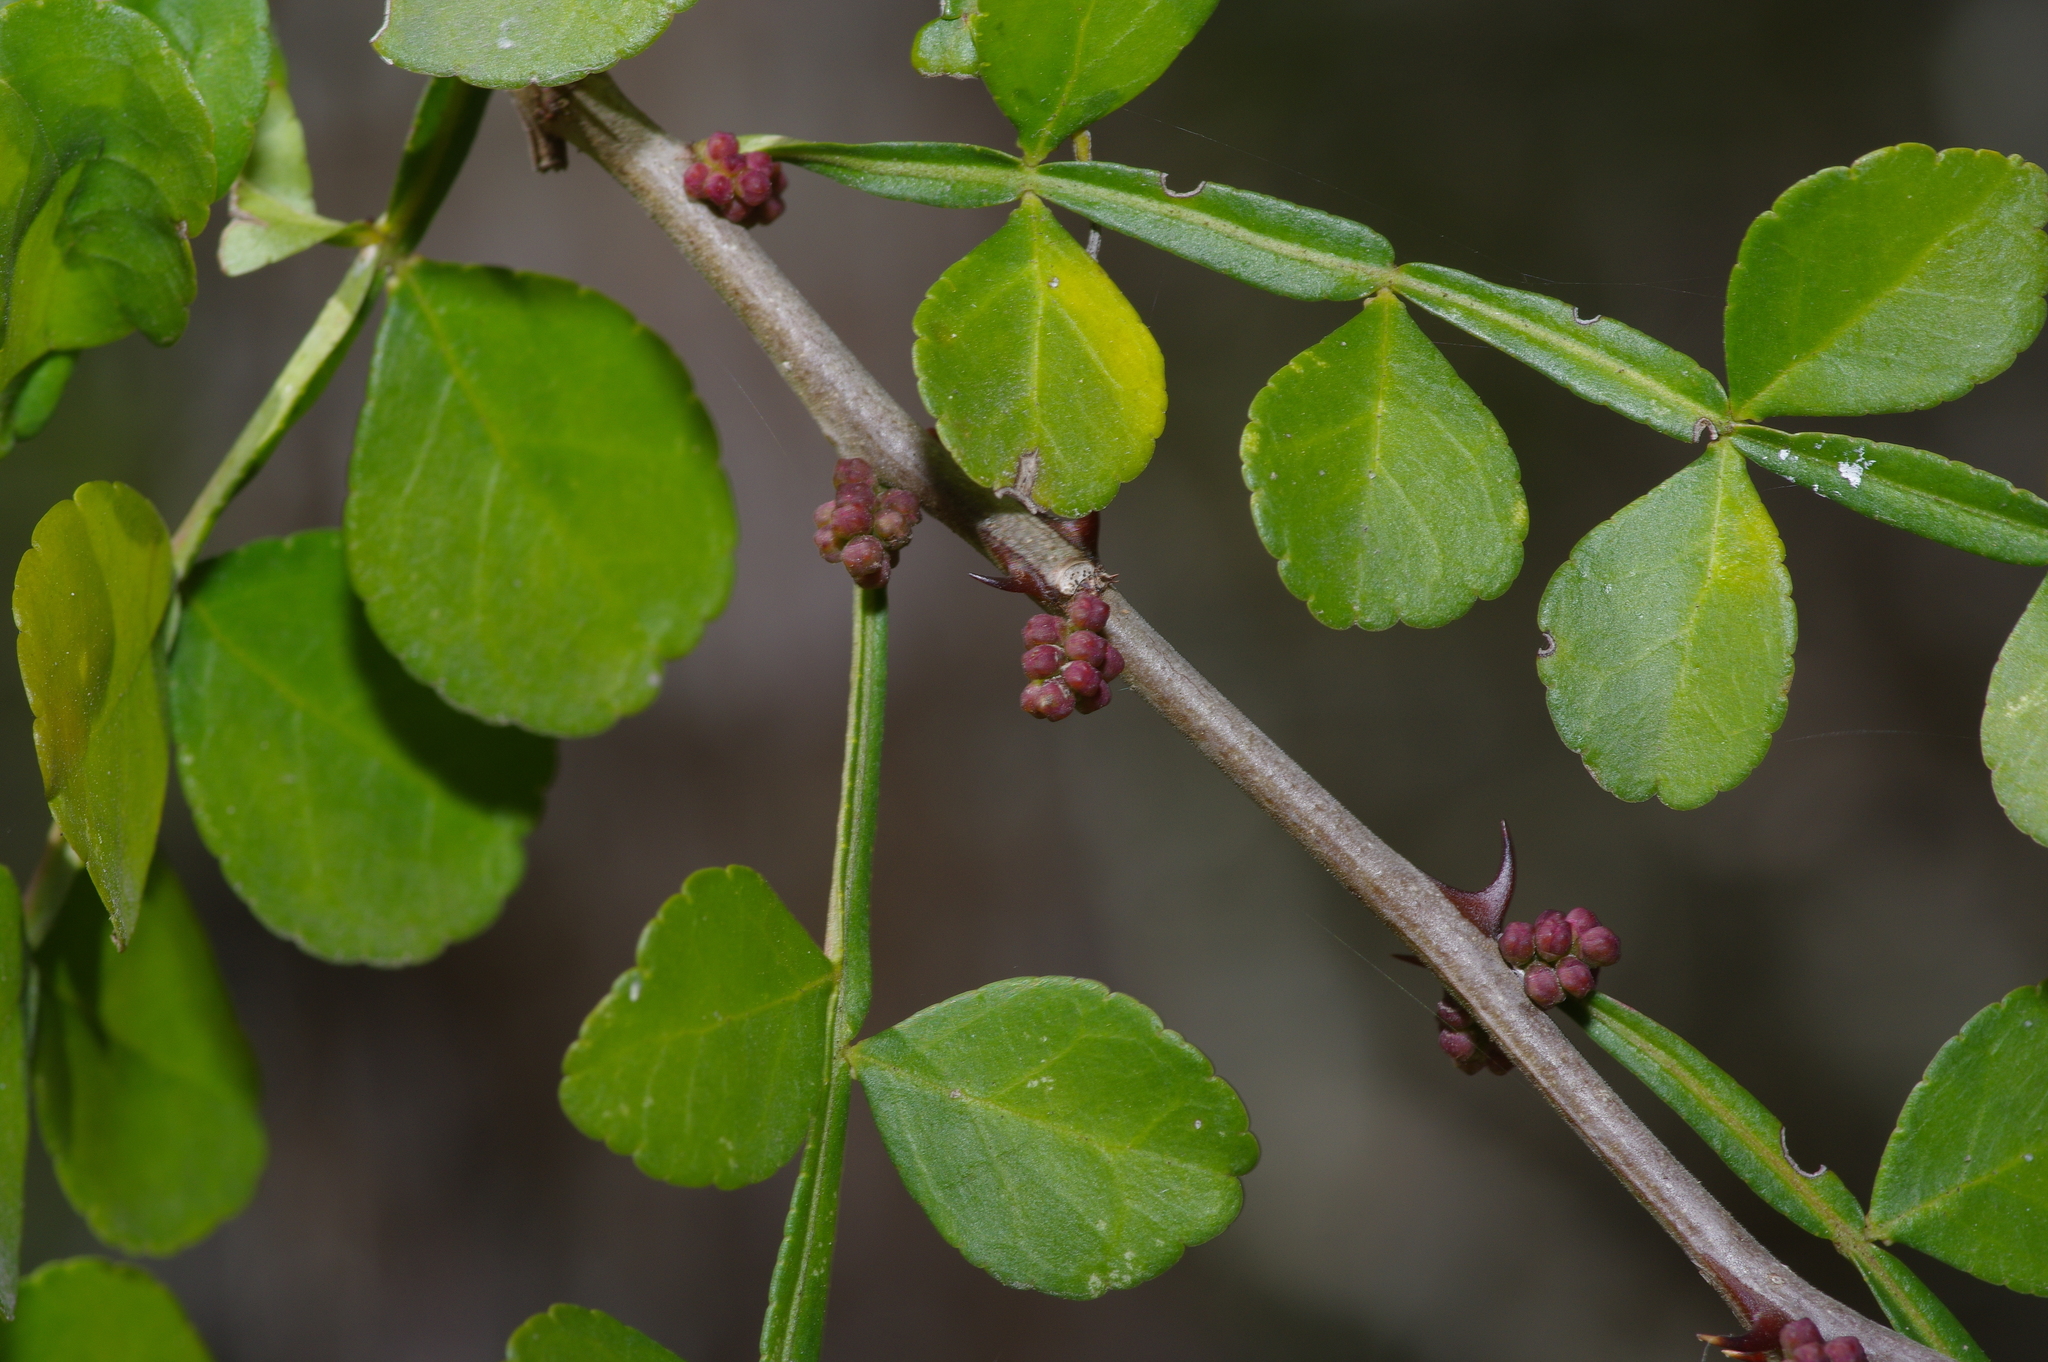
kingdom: Plantae
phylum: Tracheophyta
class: Magnoliopsida
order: Sapindales
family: Rutaceae
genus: Zanthoxylum
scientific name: Zanthoxylum fagara
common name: Lime prickly-ash
